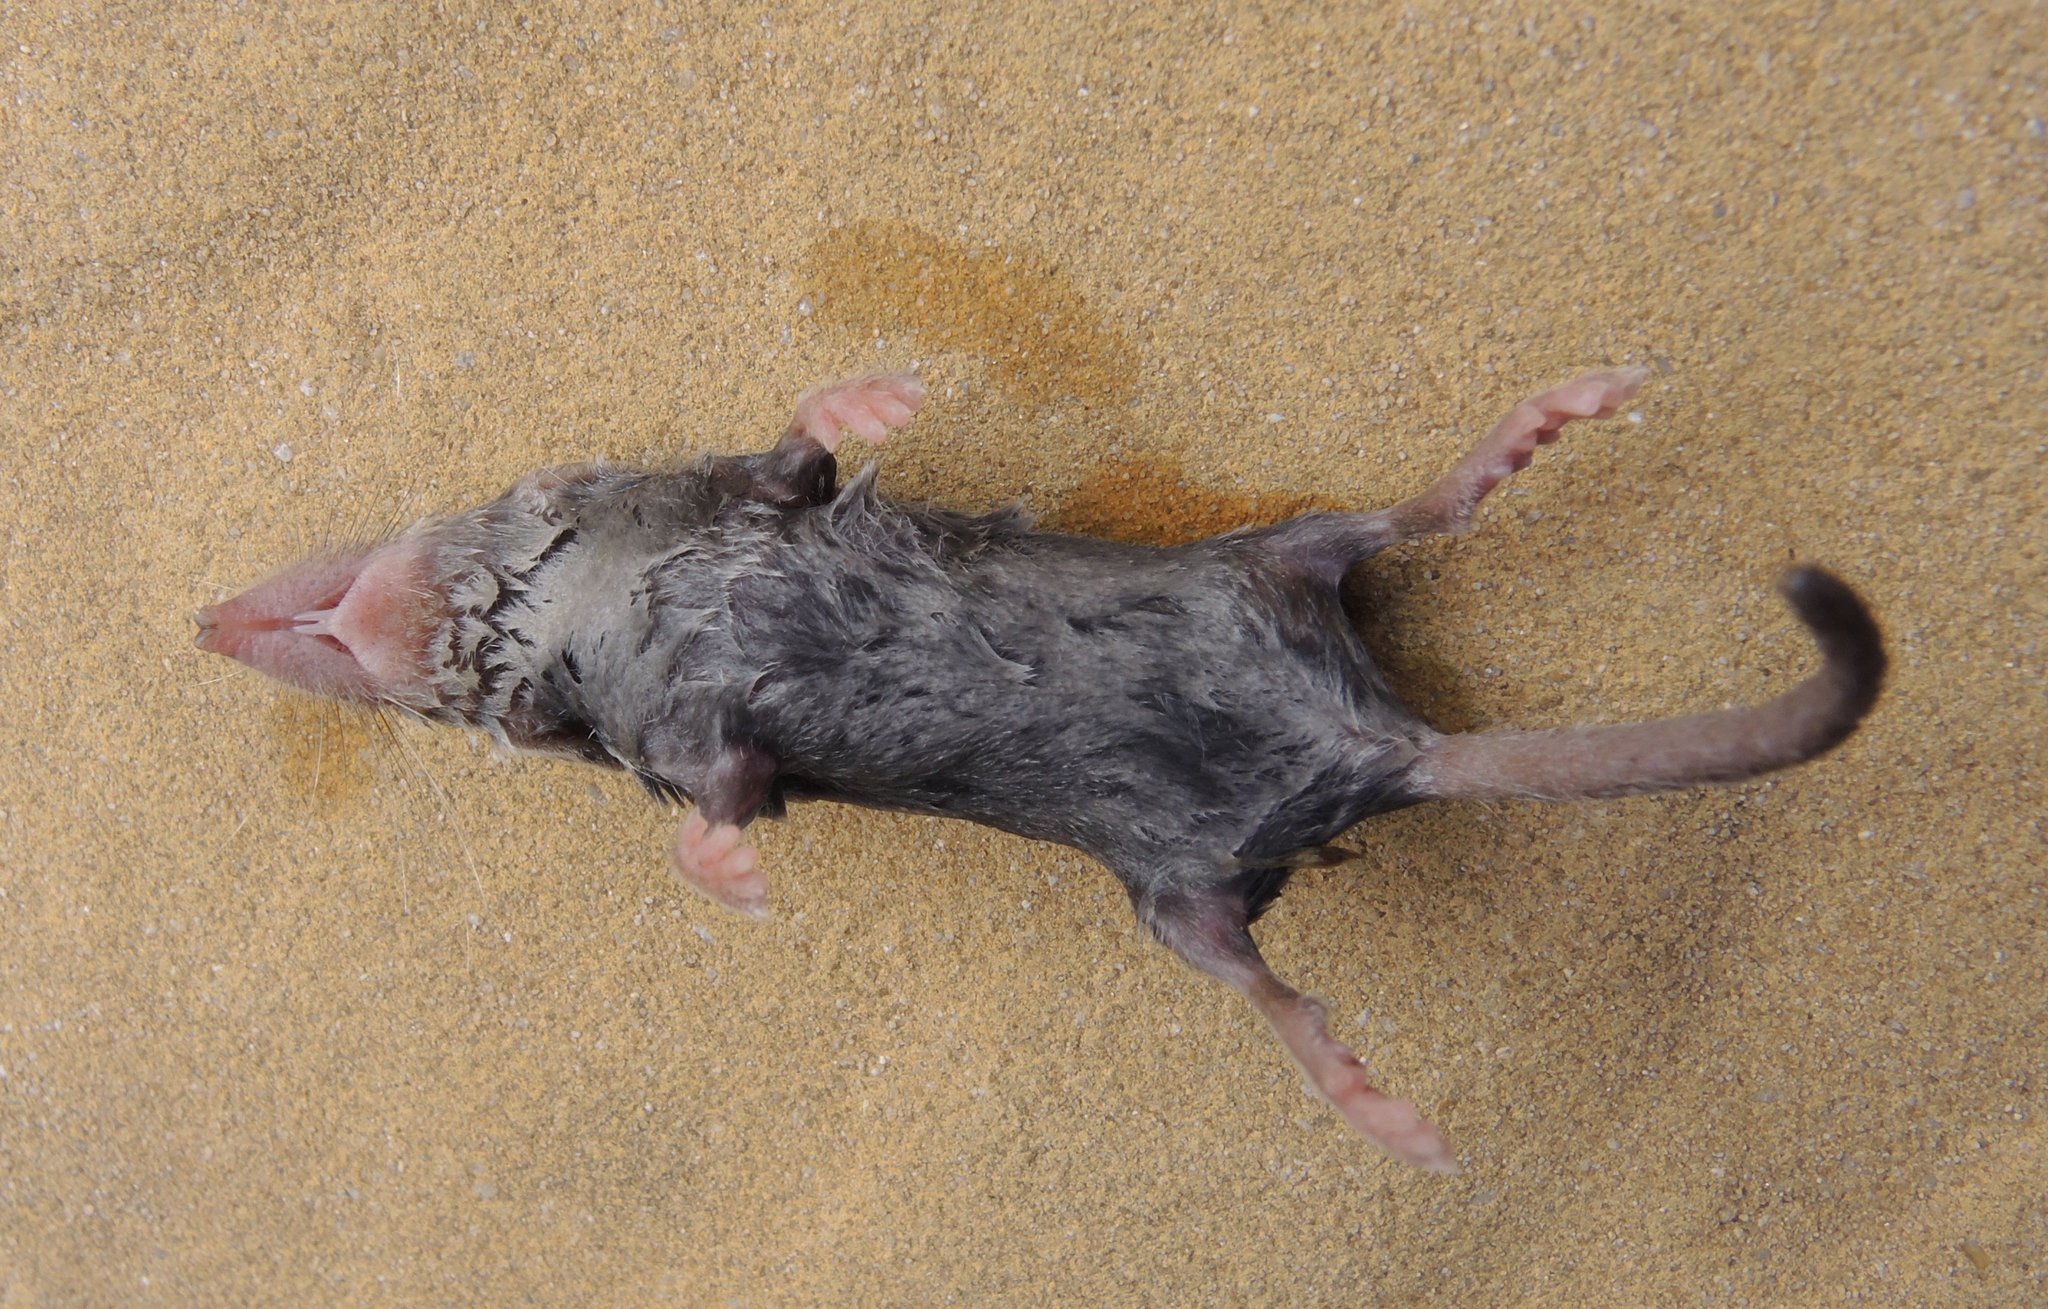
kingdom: Animalia
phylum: Chordata
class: Mammalia
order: Soricomorpha
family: Soricidae
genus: Suncus
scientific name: Suncus etruscus
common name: Etruscan shrew
